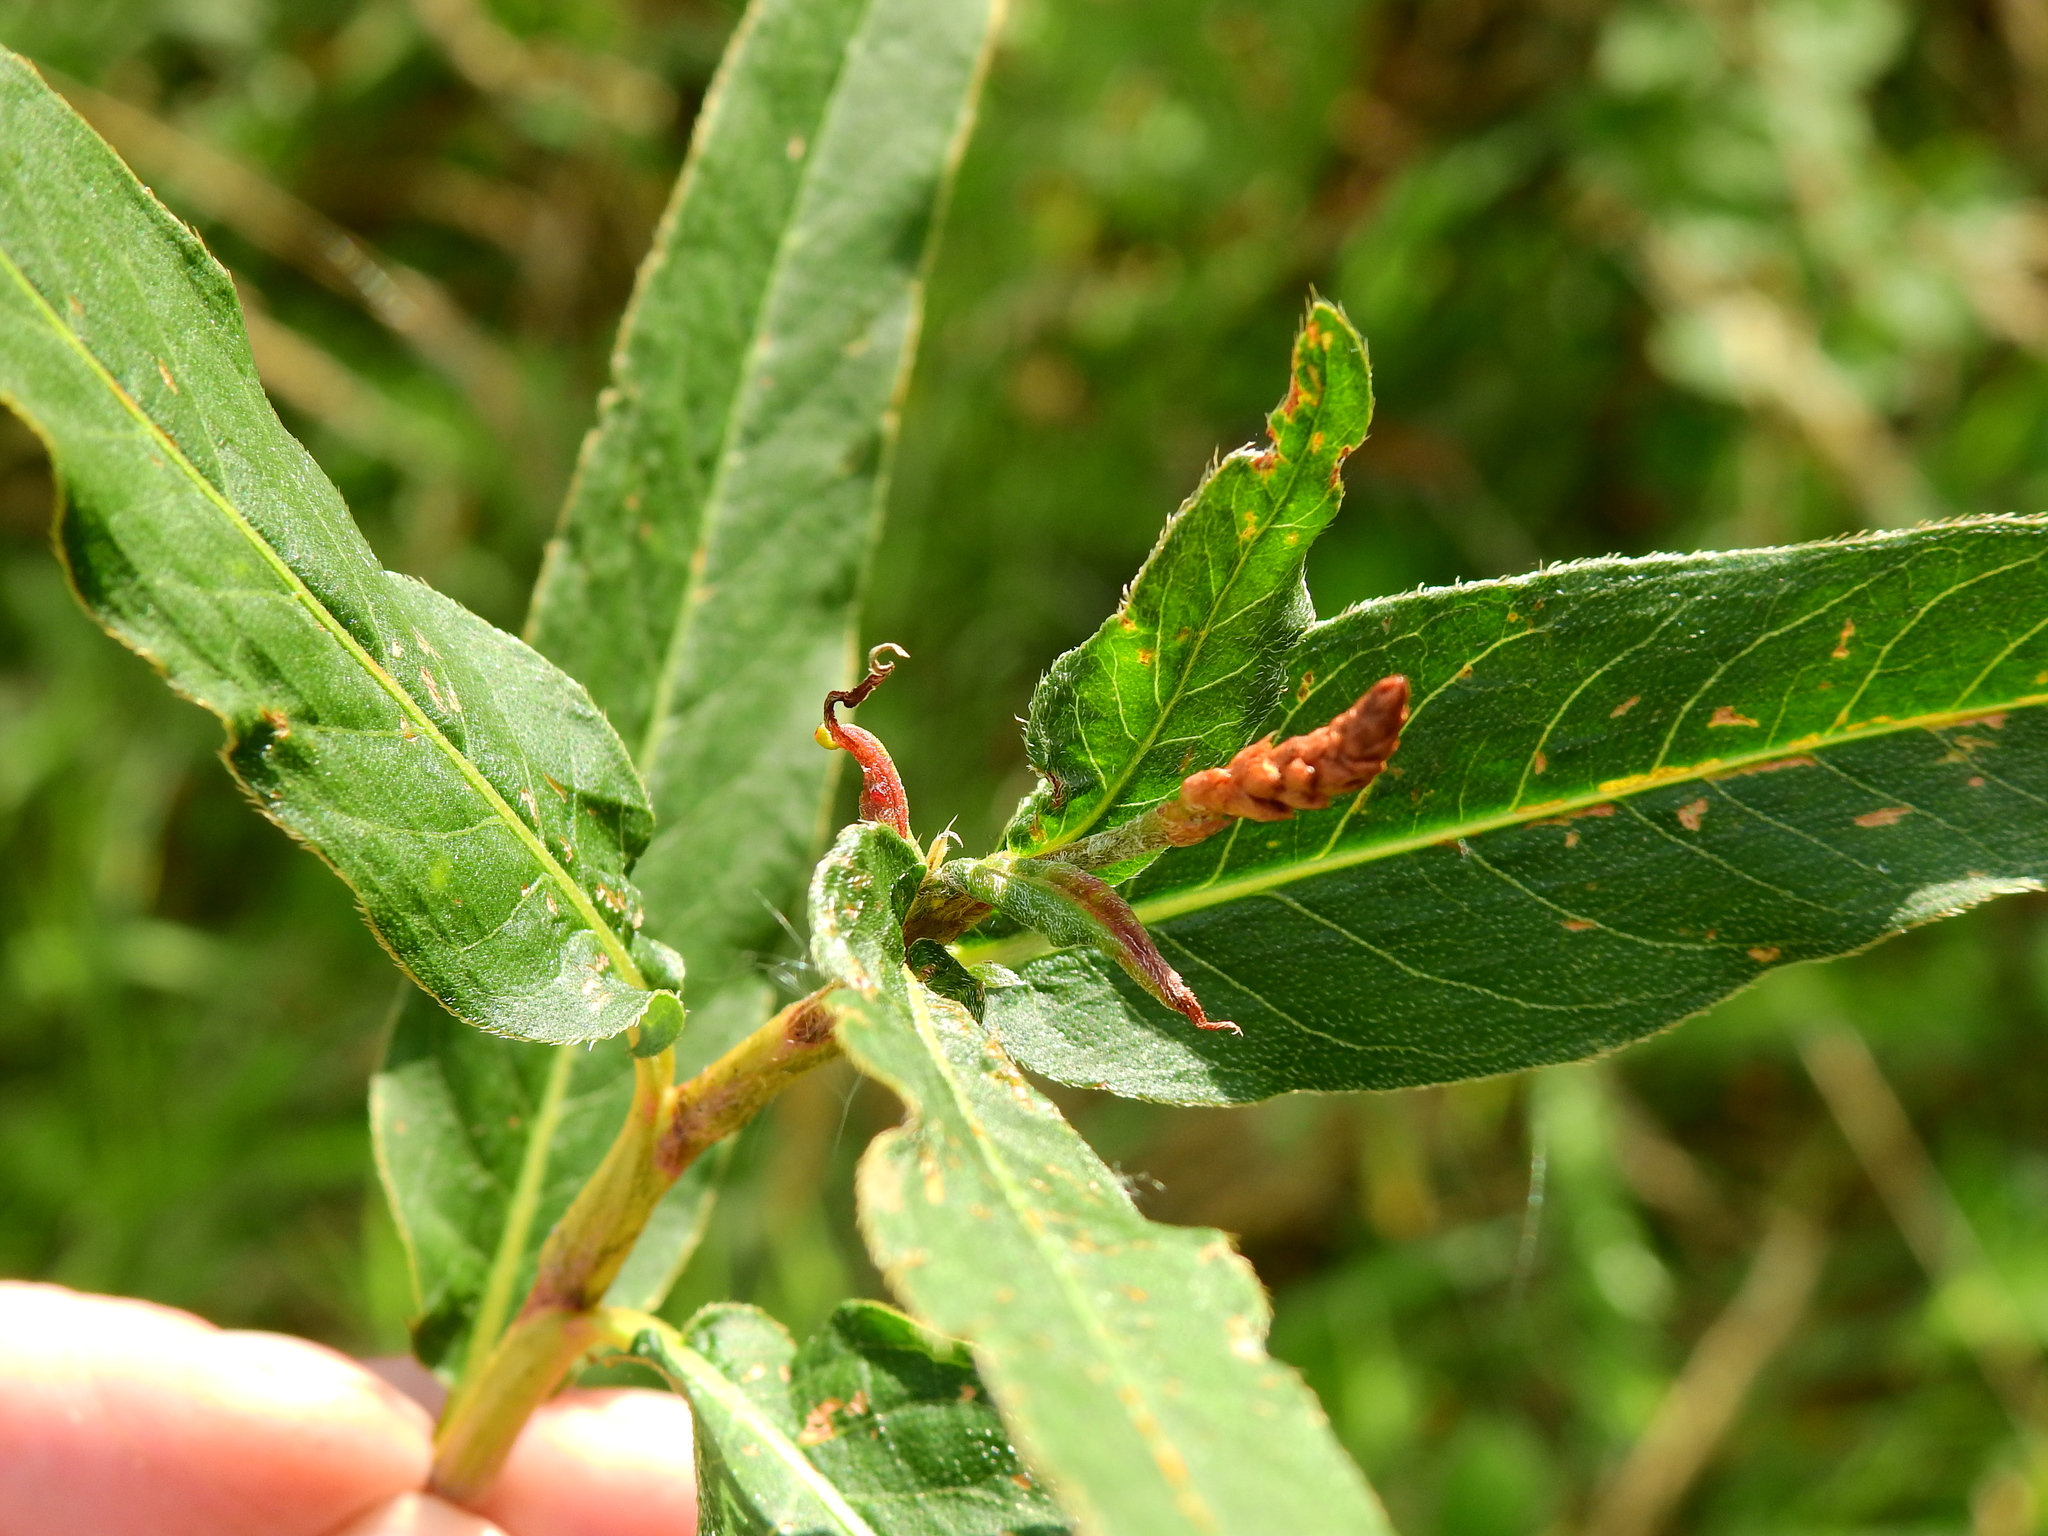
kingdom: Animalia
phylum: Arthropoda
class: Insecta
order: Diptera
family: Cecidomyiidae
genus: Wachtliella
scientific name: Wachtliella persicariae
